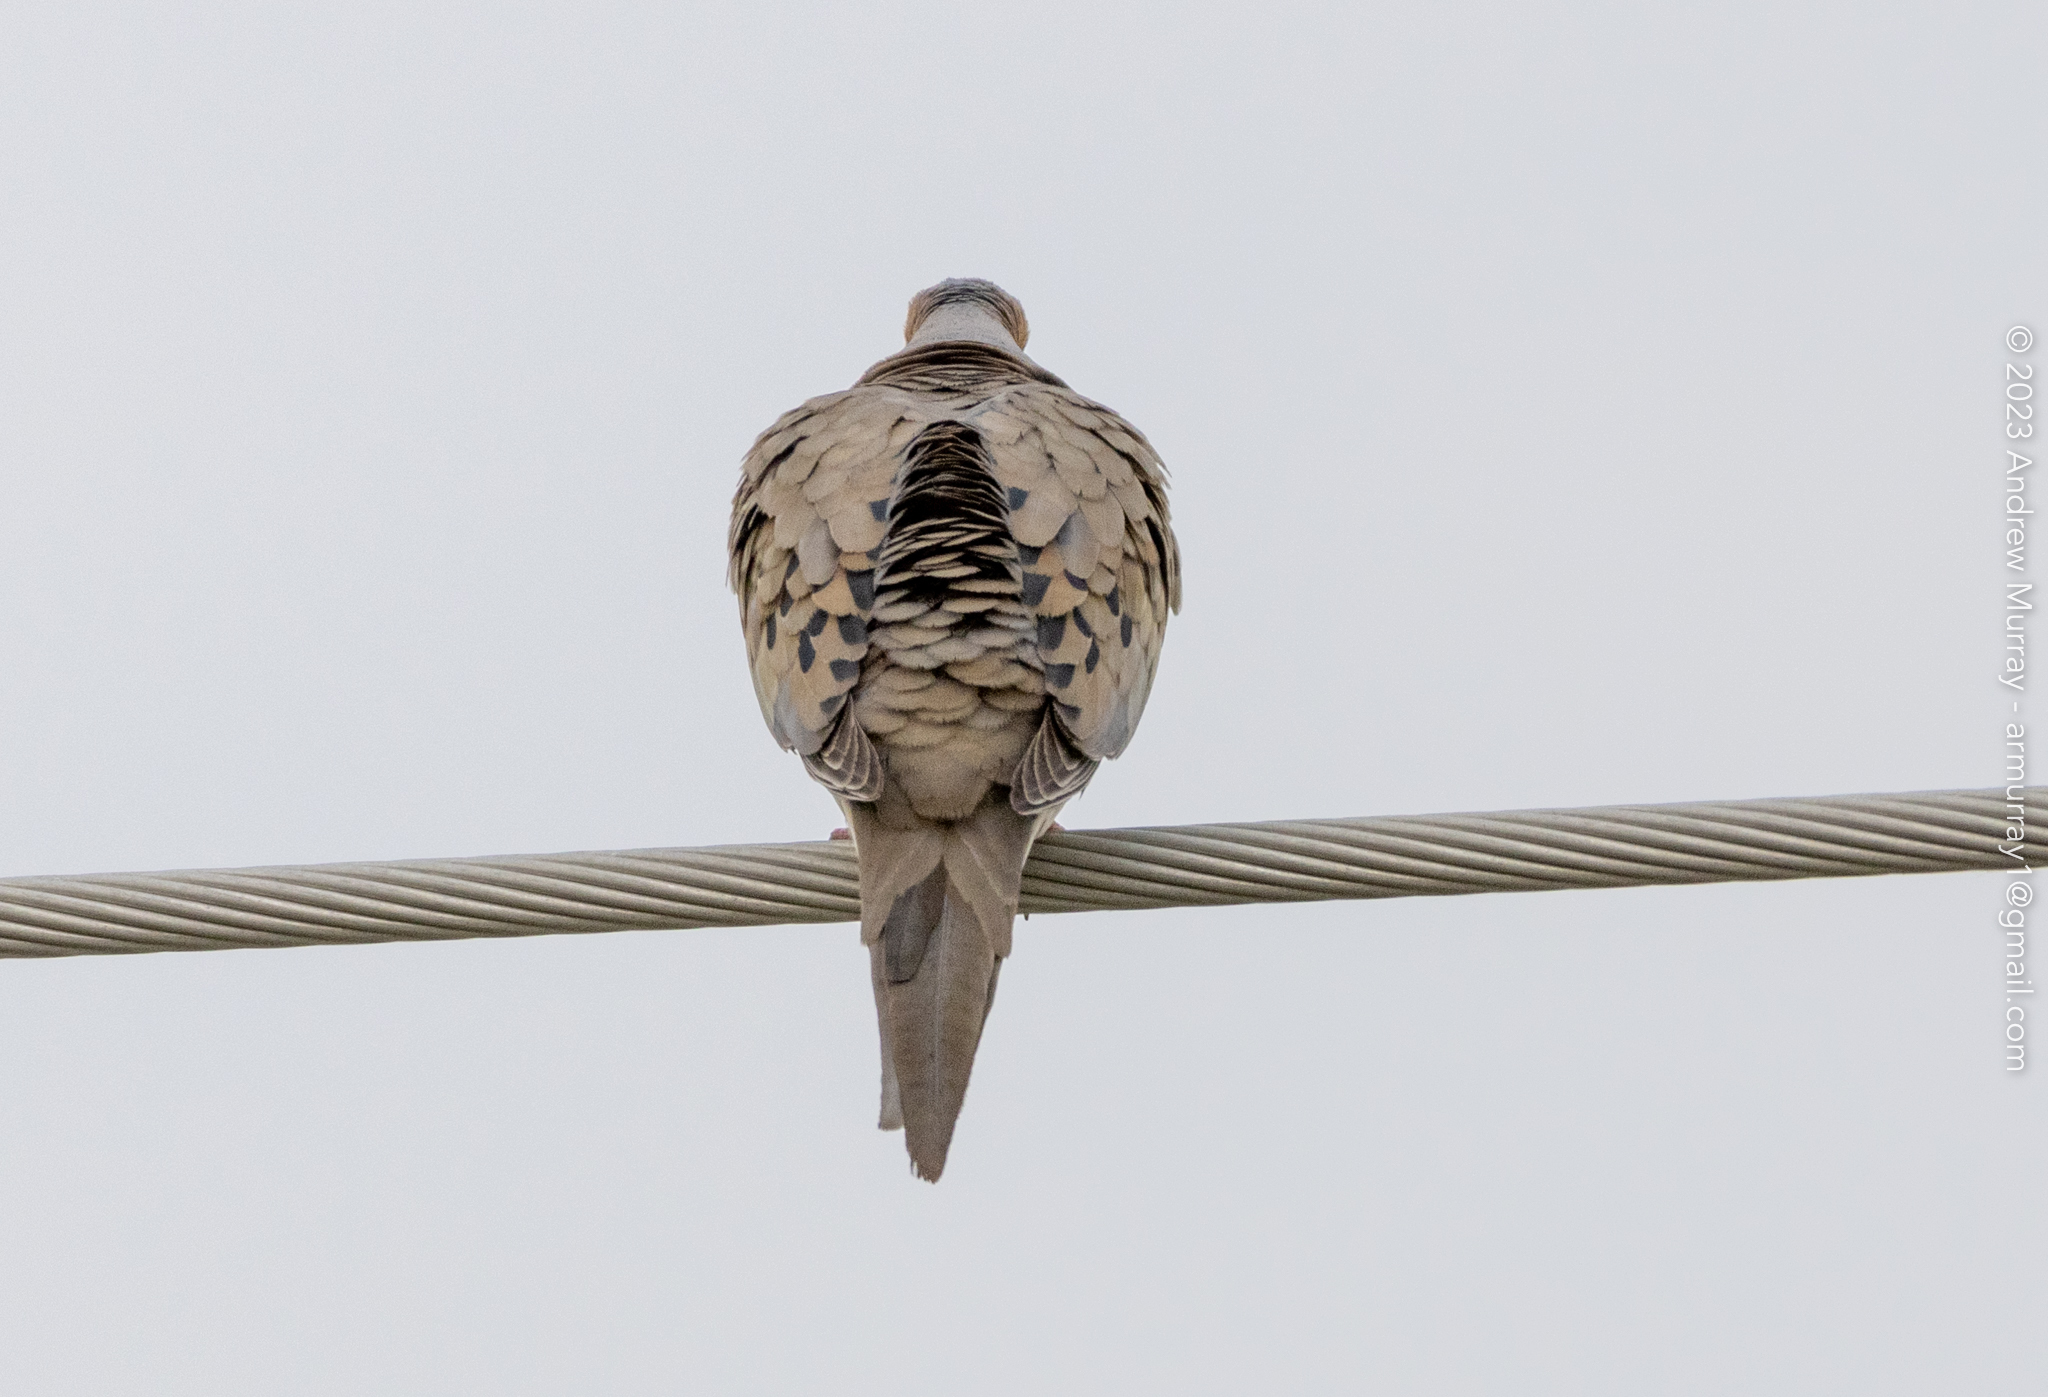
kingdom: Animalia
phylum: Chordata
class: Aves
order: Columbiformes
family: Columbidae
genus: Zenaida
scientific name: Zenaida macroura
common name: Mourning dove
